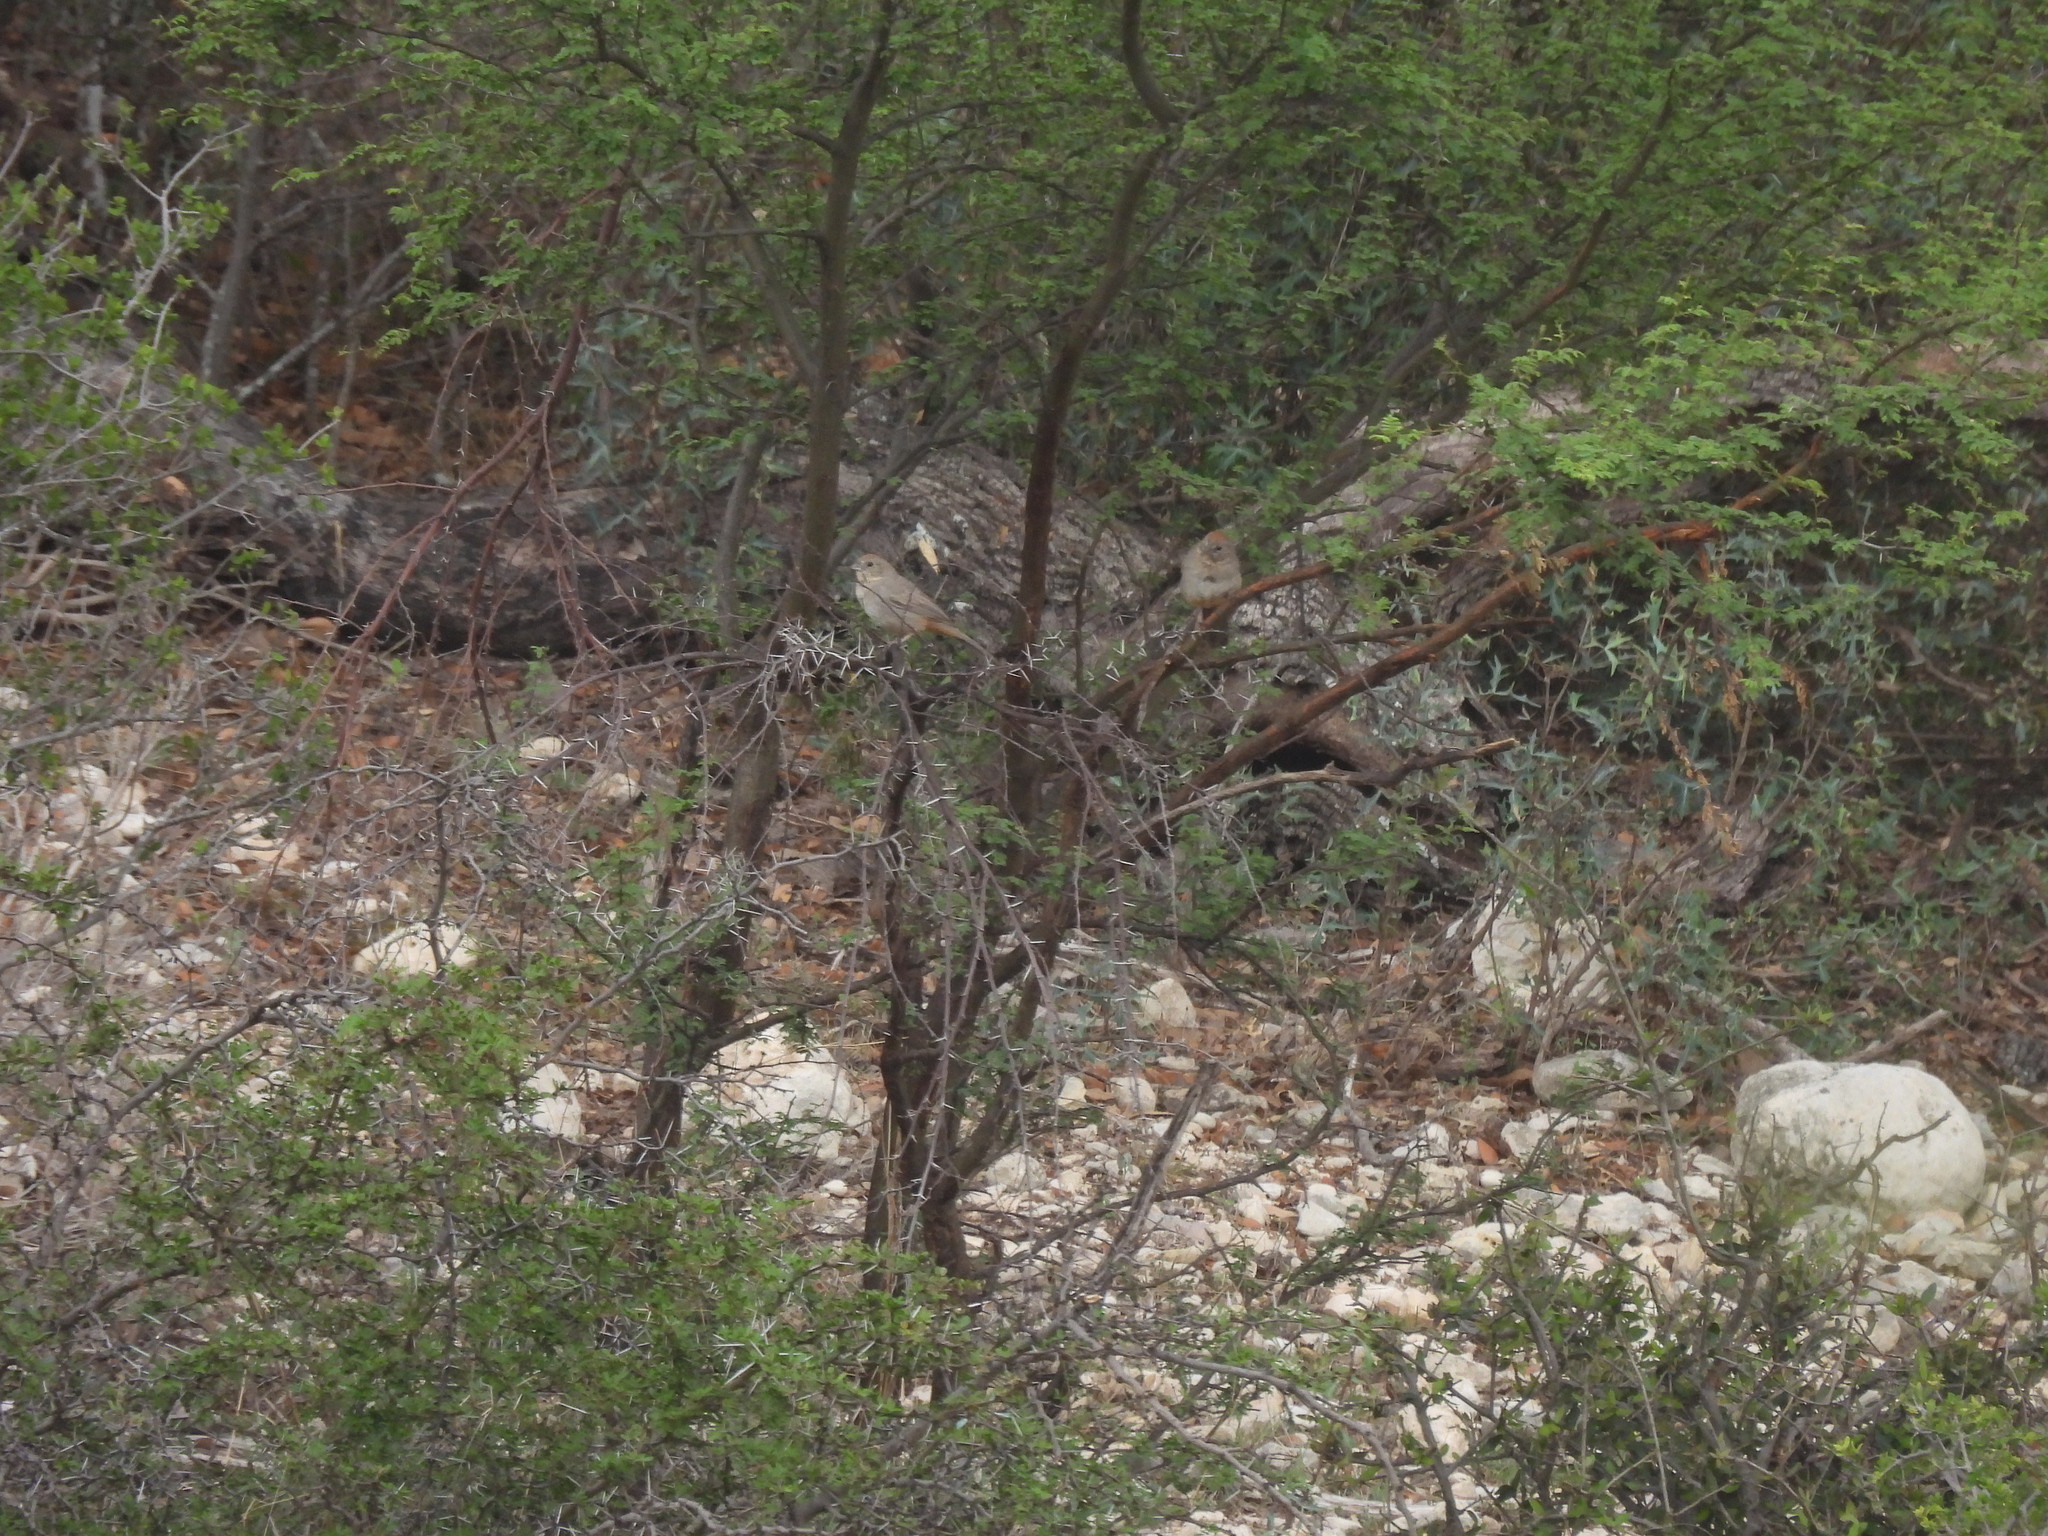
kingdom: Animalia
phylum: Chordata
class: Aves
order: Passeriformes
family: Passerellidae
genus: Melozone
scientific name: Melozone fusca
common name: Canyon towhee
